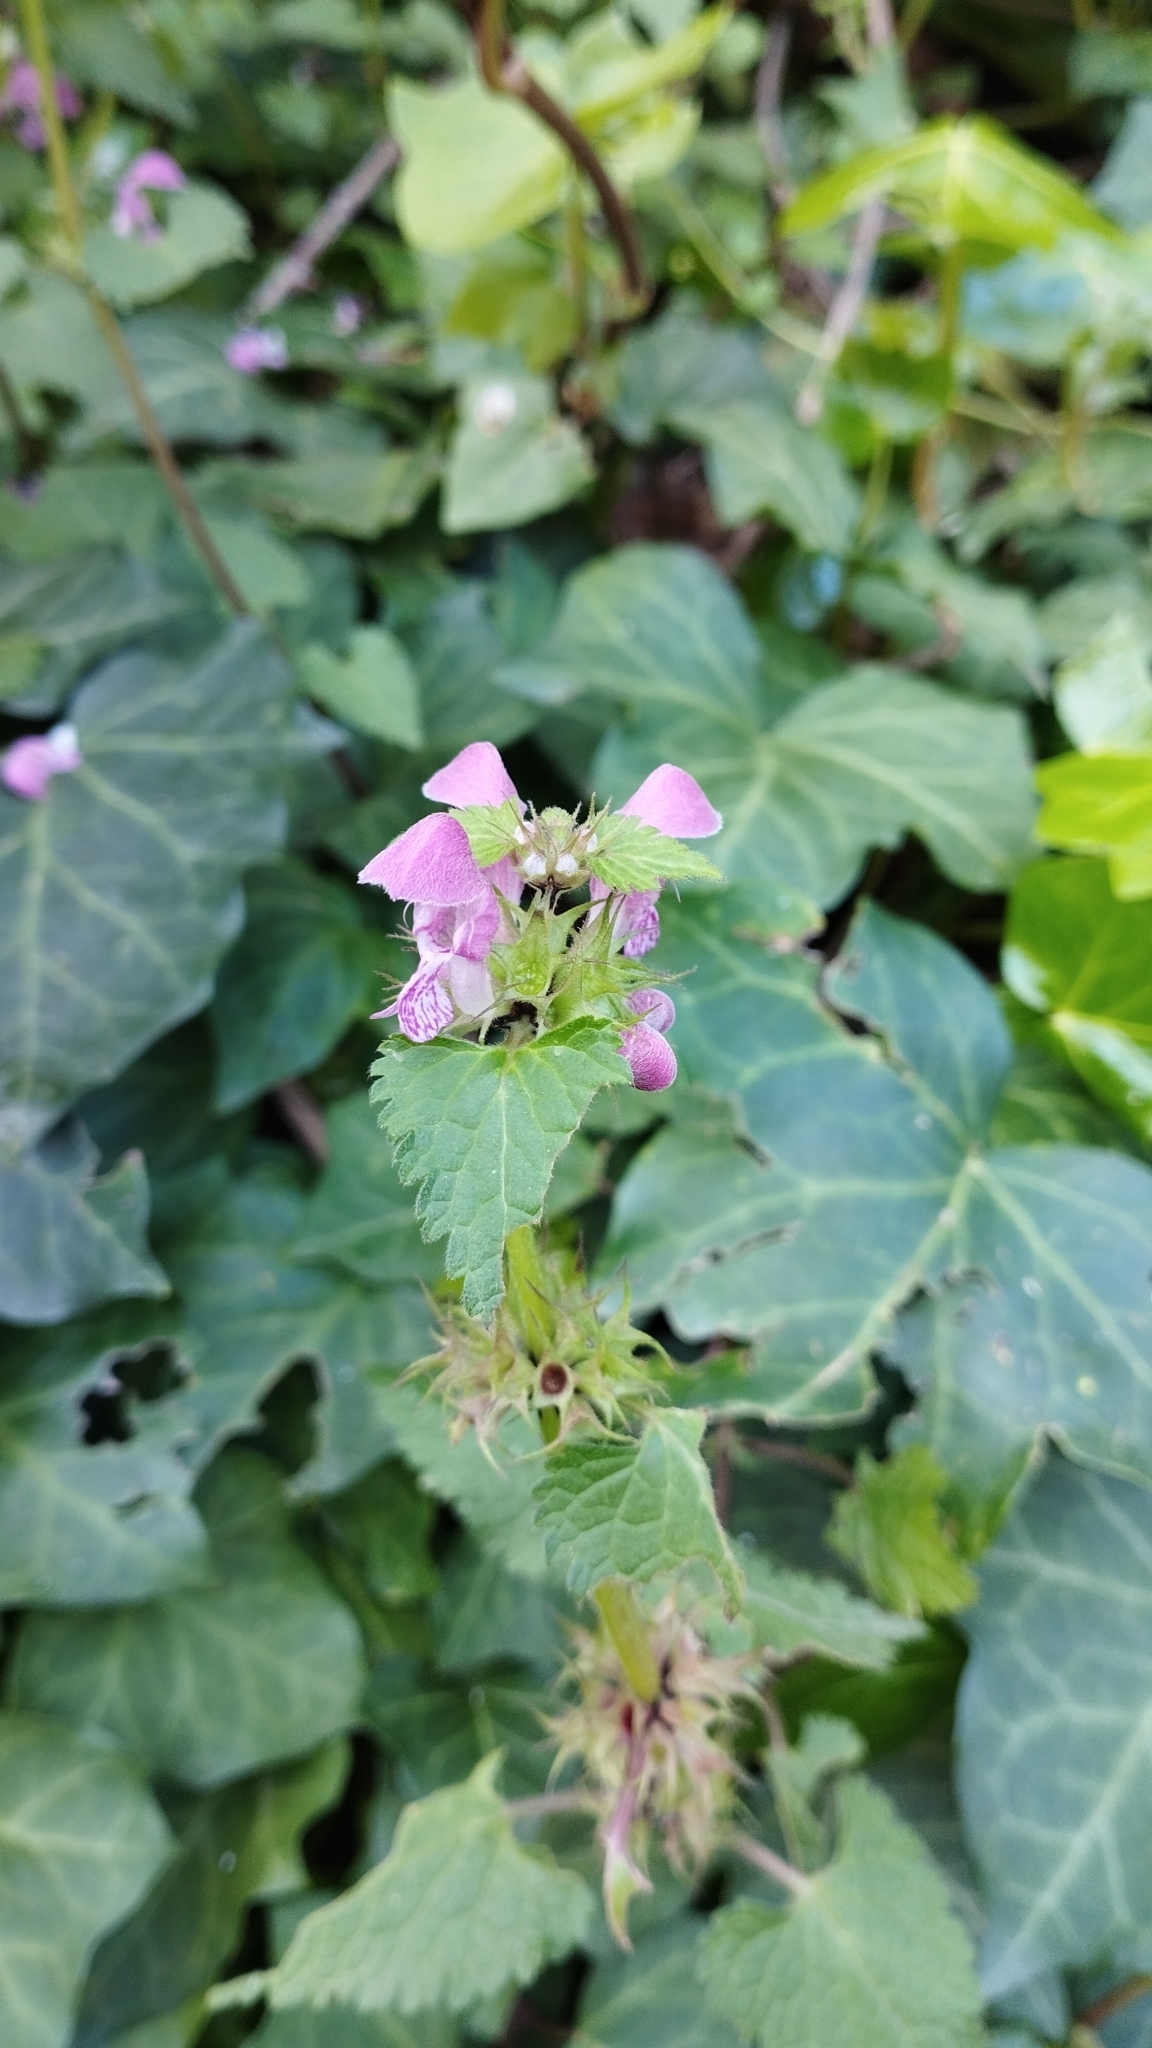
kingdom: Plantae
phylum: Tracheophyta
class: Magnoliopsida
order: Lamiales
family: Lamiaceae
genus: Lamium
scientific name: Lamium maculatum
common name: Spotted dead-nettle
